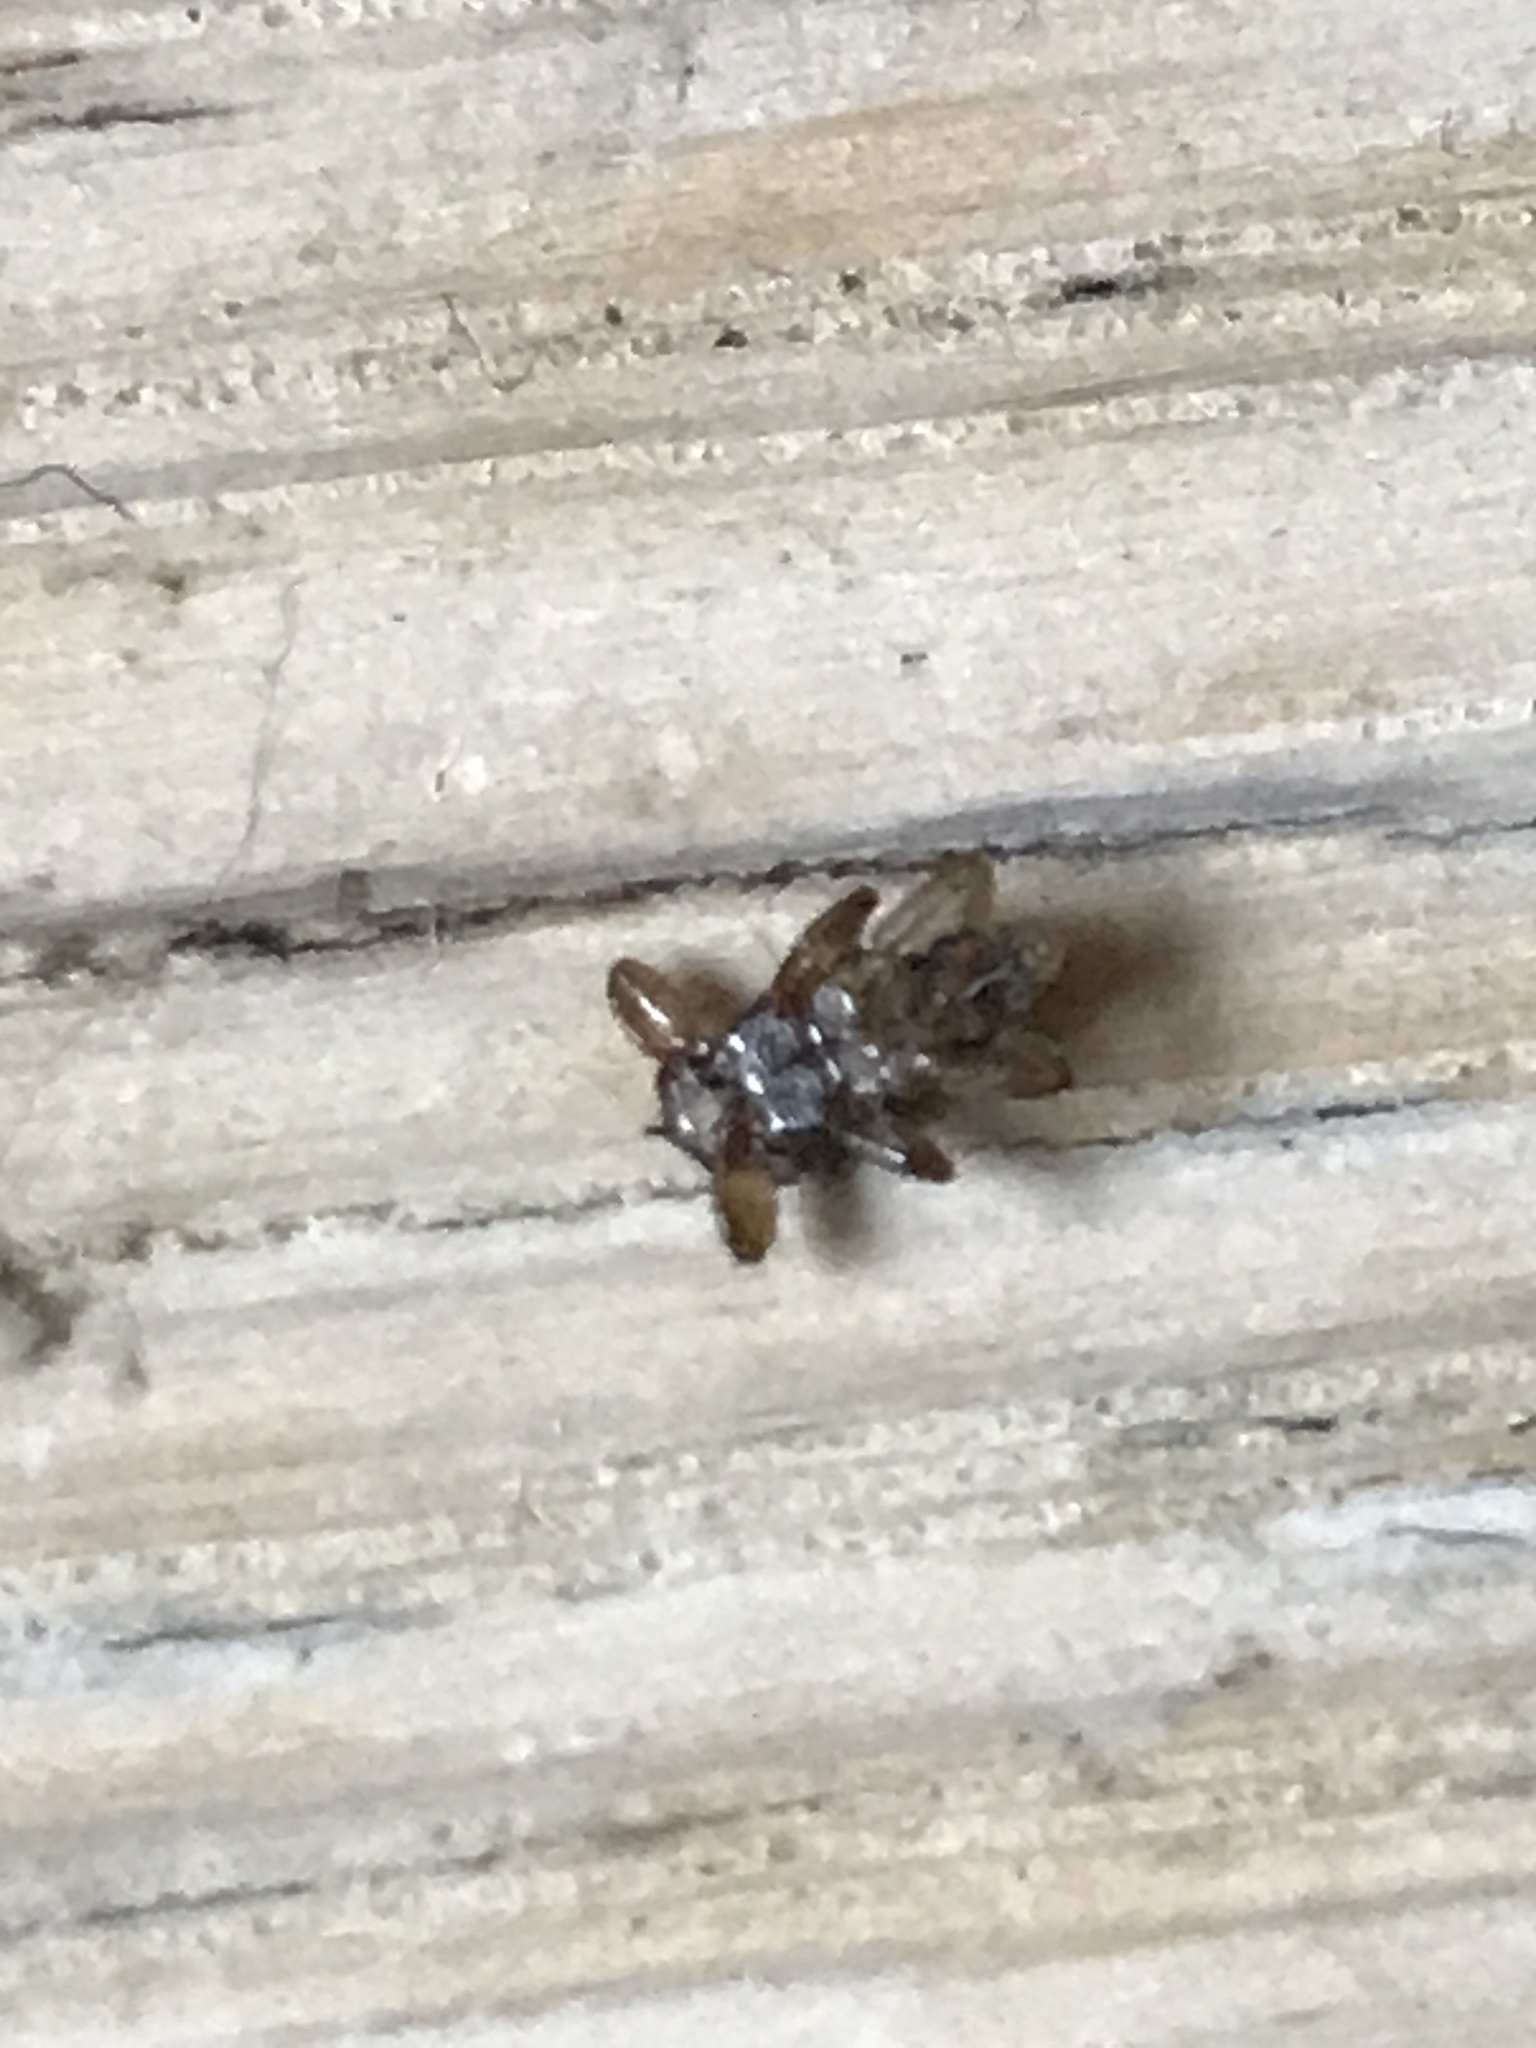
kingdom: Animalia
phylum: Arthropoda
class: Insecta
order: Diptera
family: Hippoboscidae
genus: Lipoptena
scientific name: Lipoptena cervi
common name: Deer ked
